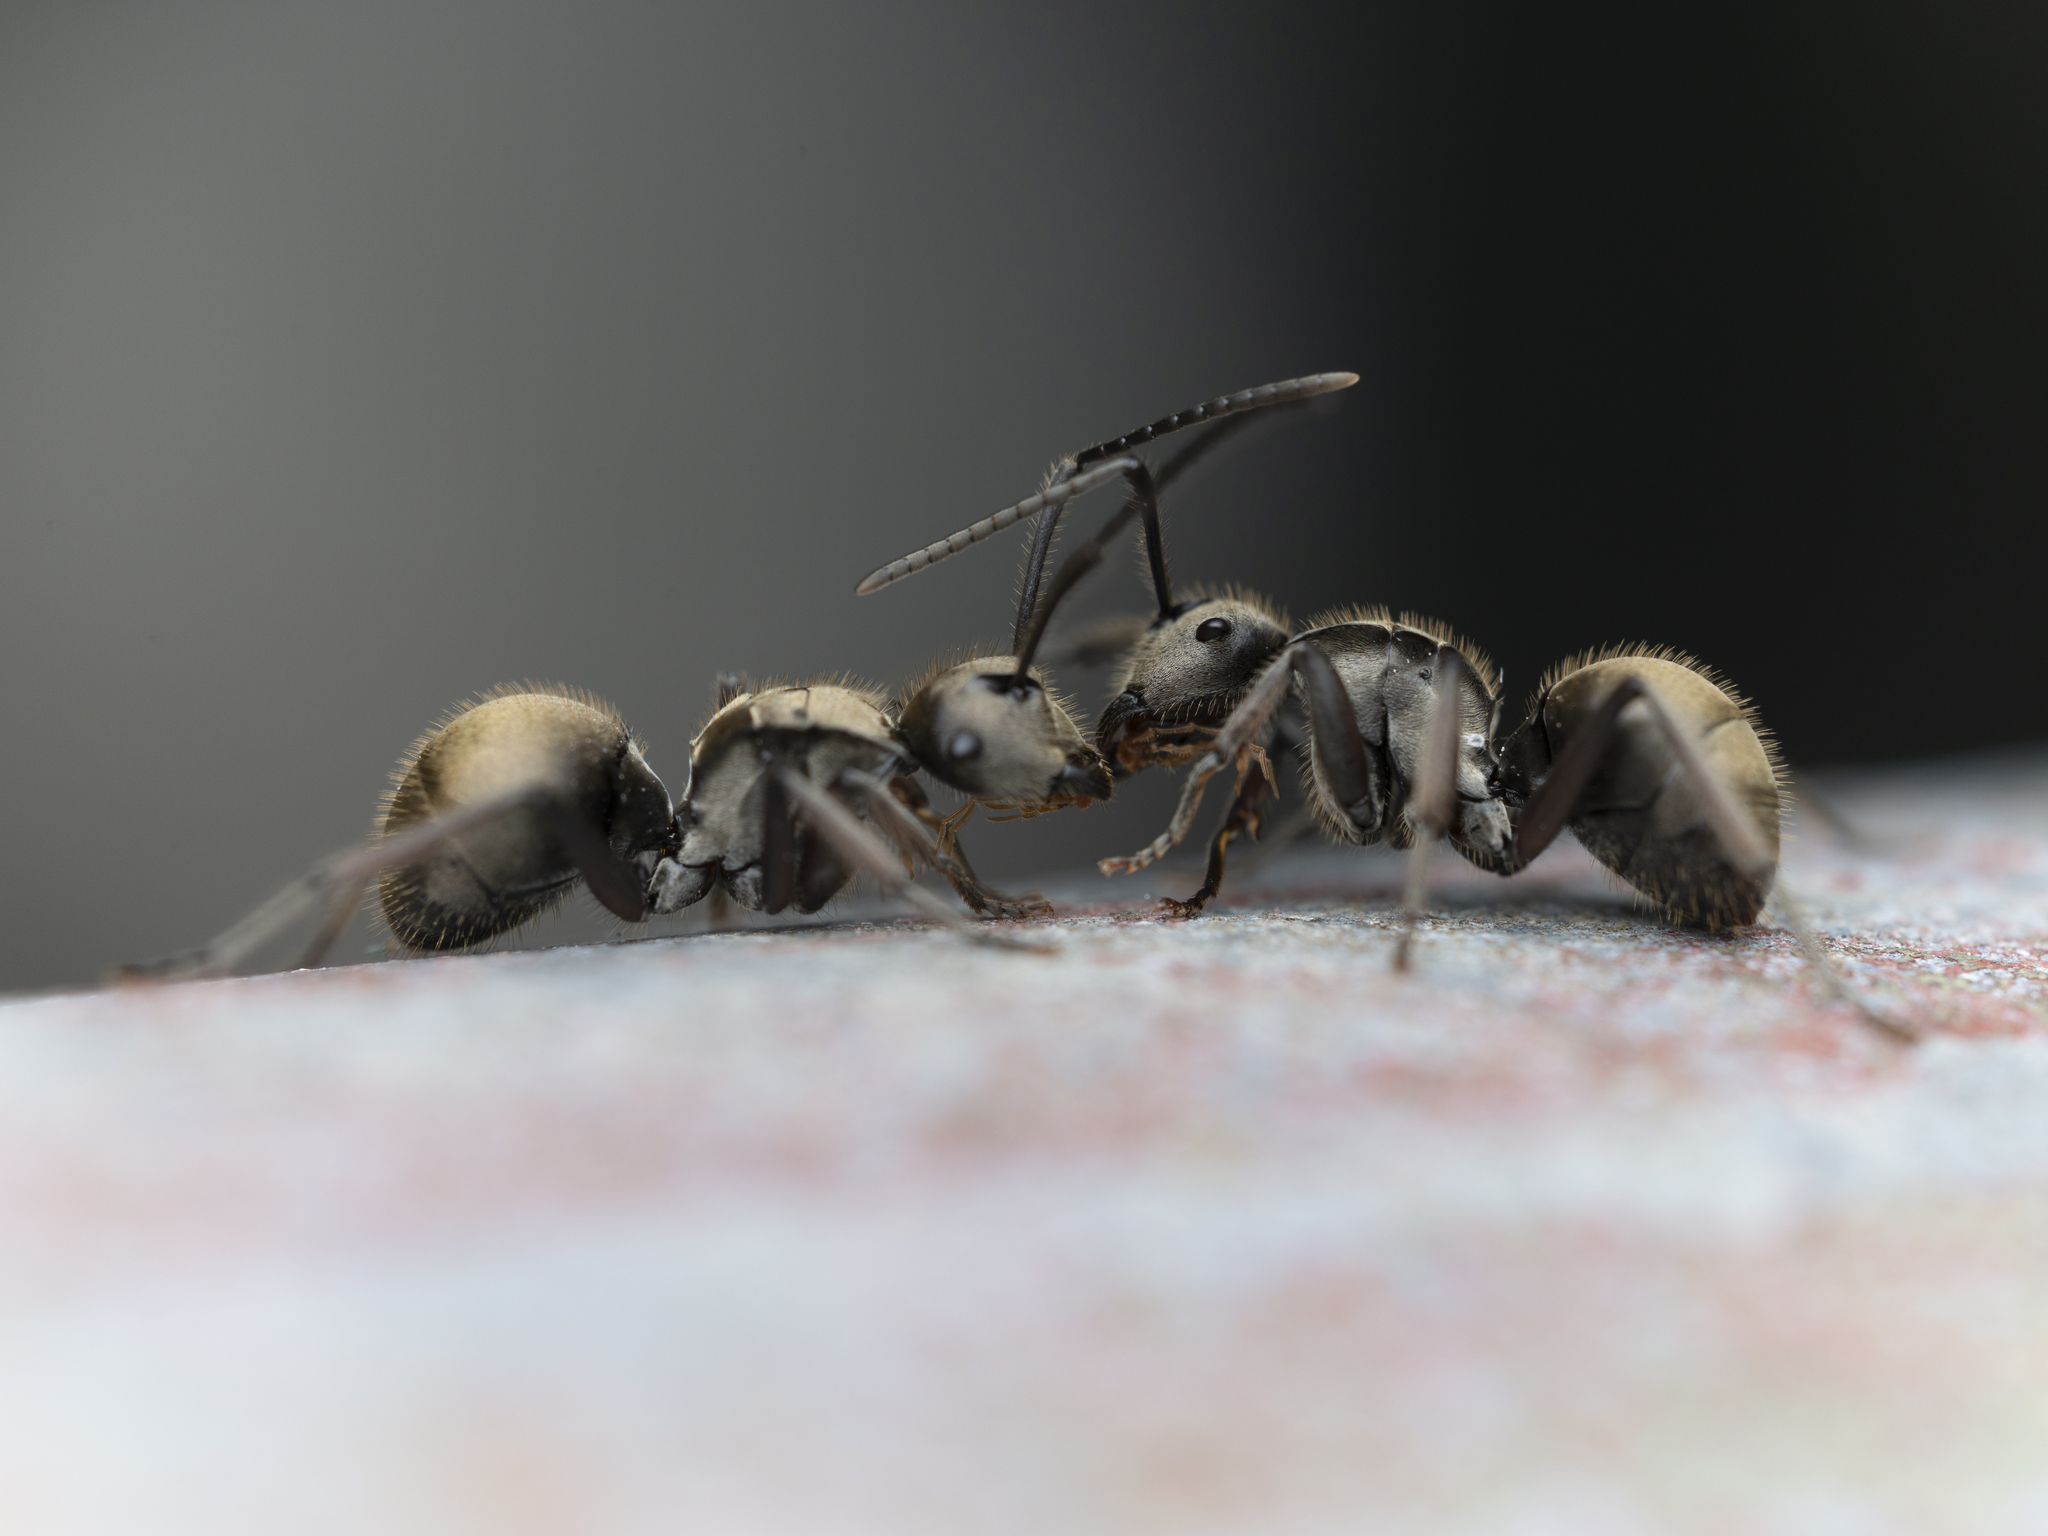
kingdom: Animalia
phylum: Arthropoda
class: Insecta
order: Hymenoptera
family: Formicidae
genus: Polyrhachis
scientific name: Polyrhachis vigilans
